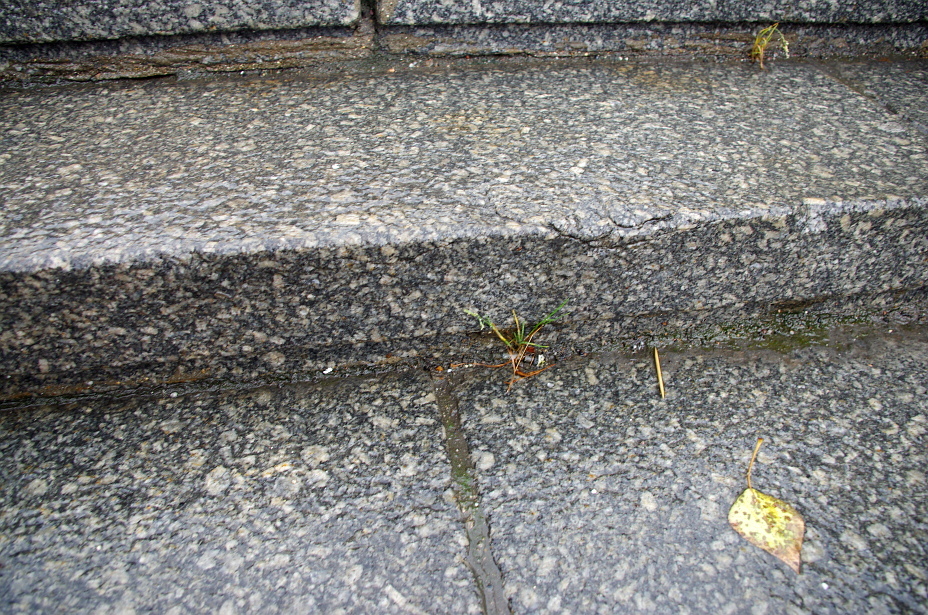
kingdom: Plantae
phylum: Tracheophyta
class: Liliopsida
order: Poales
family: Poaceae
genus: Poa
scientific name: Poa annua
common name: Annual bluegrass
